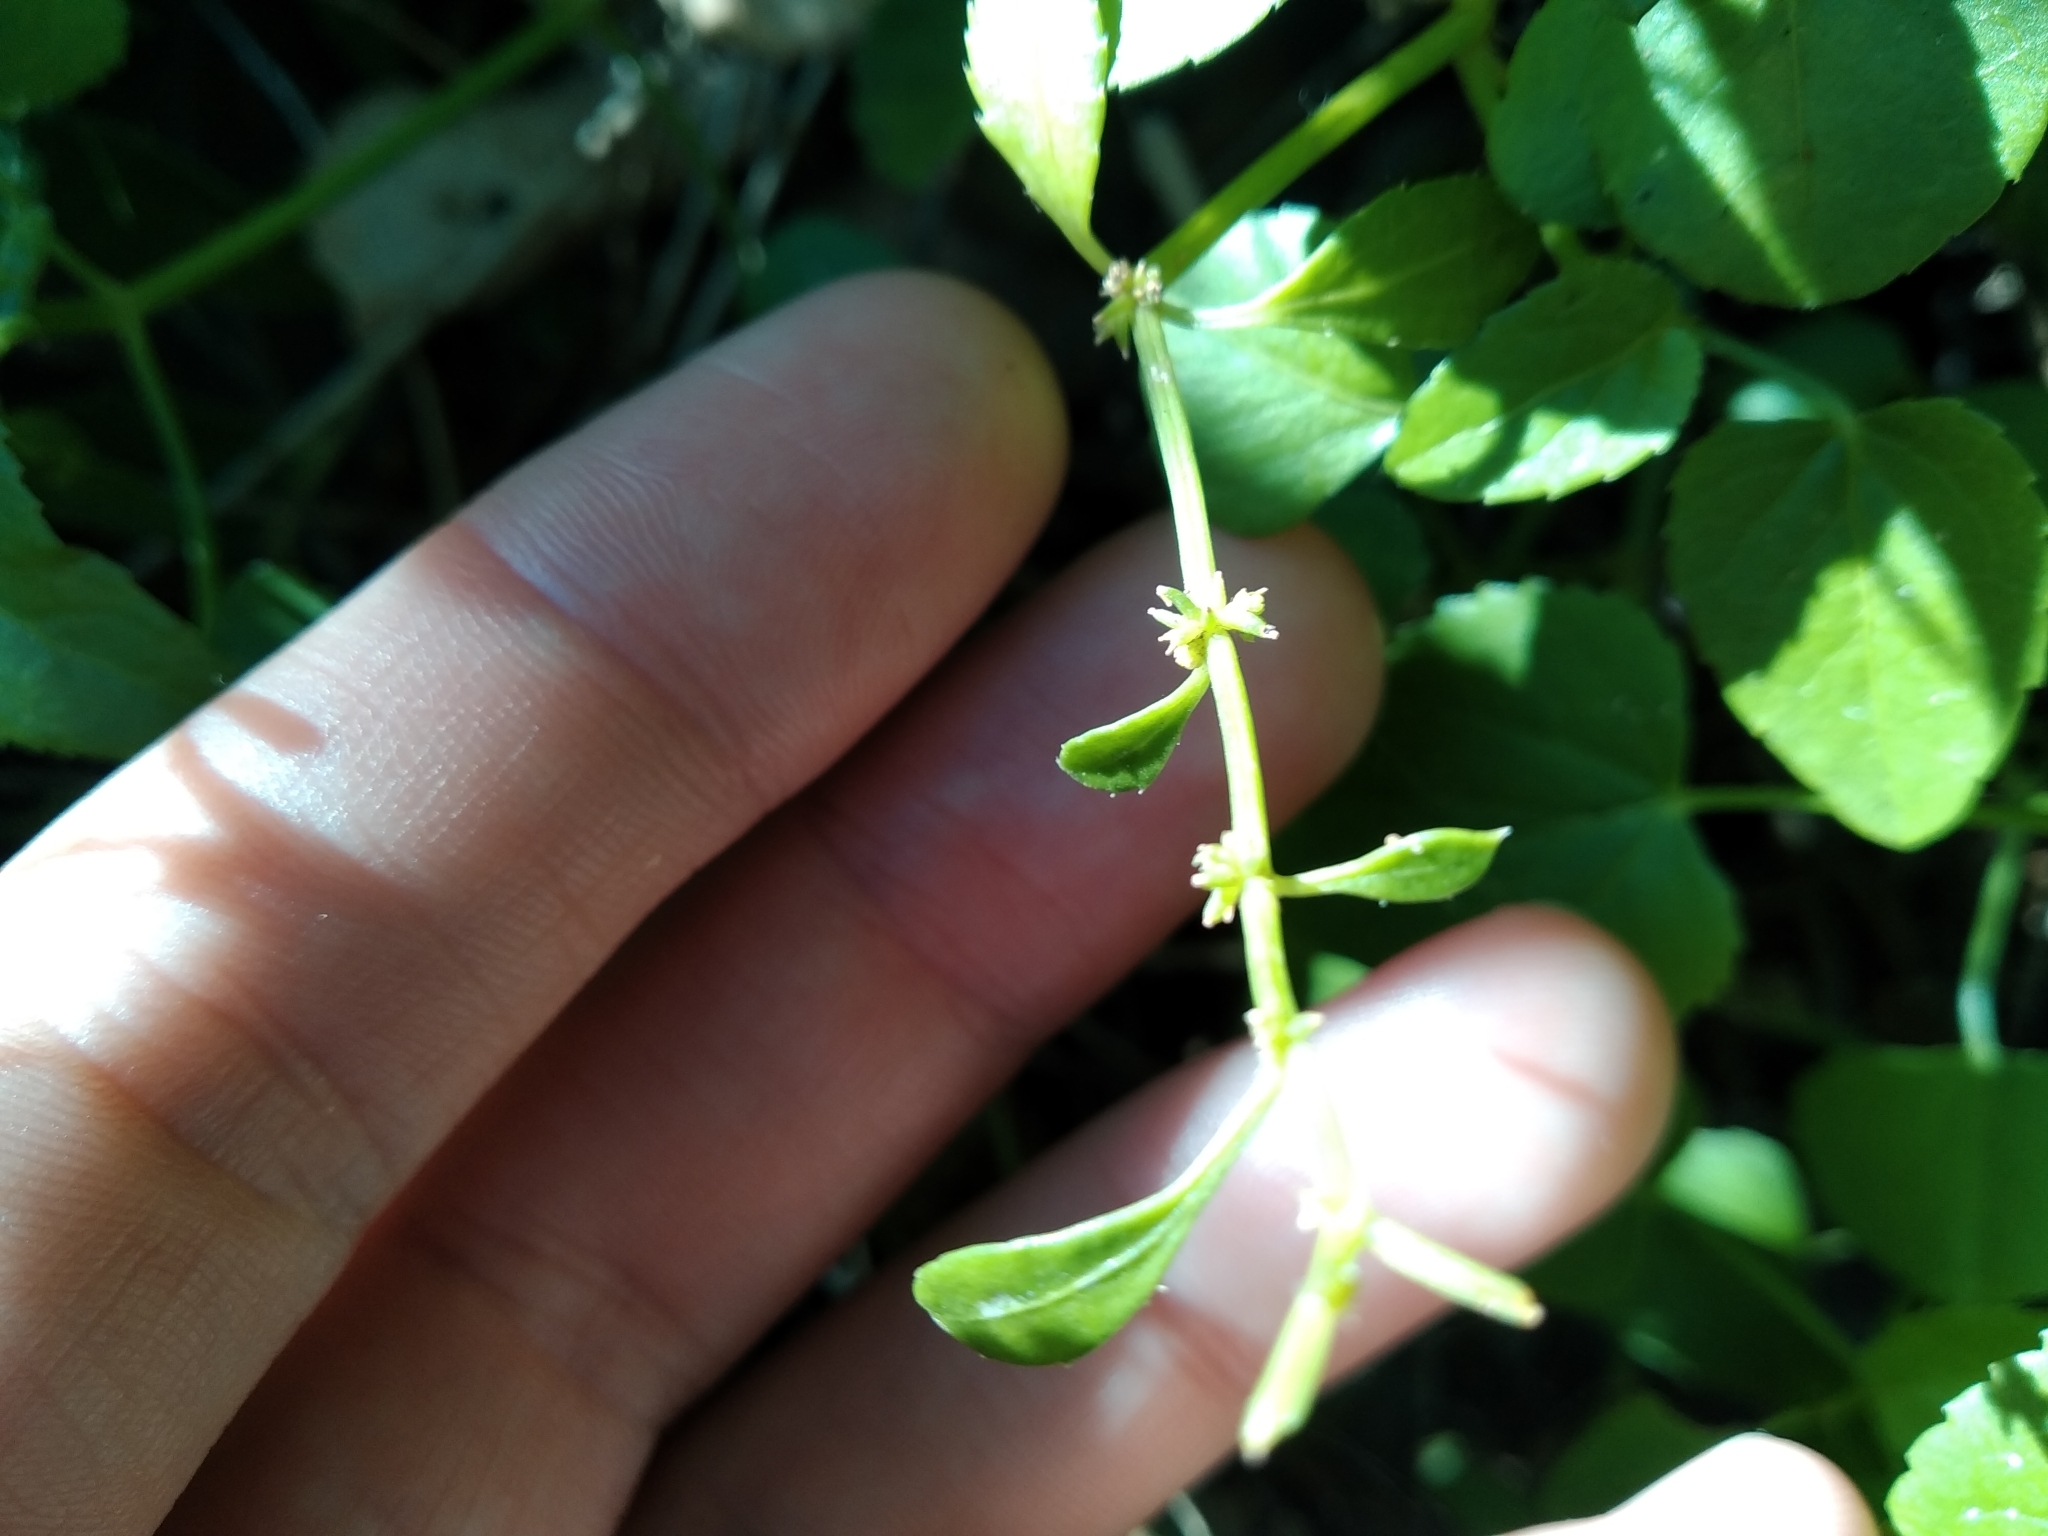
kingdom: Plantae
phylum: Tracheophyta
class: Magnoliopsida
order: Malpighiales
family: Euphorbiaceae
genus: Adenocline
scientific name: Adenocline acuta
